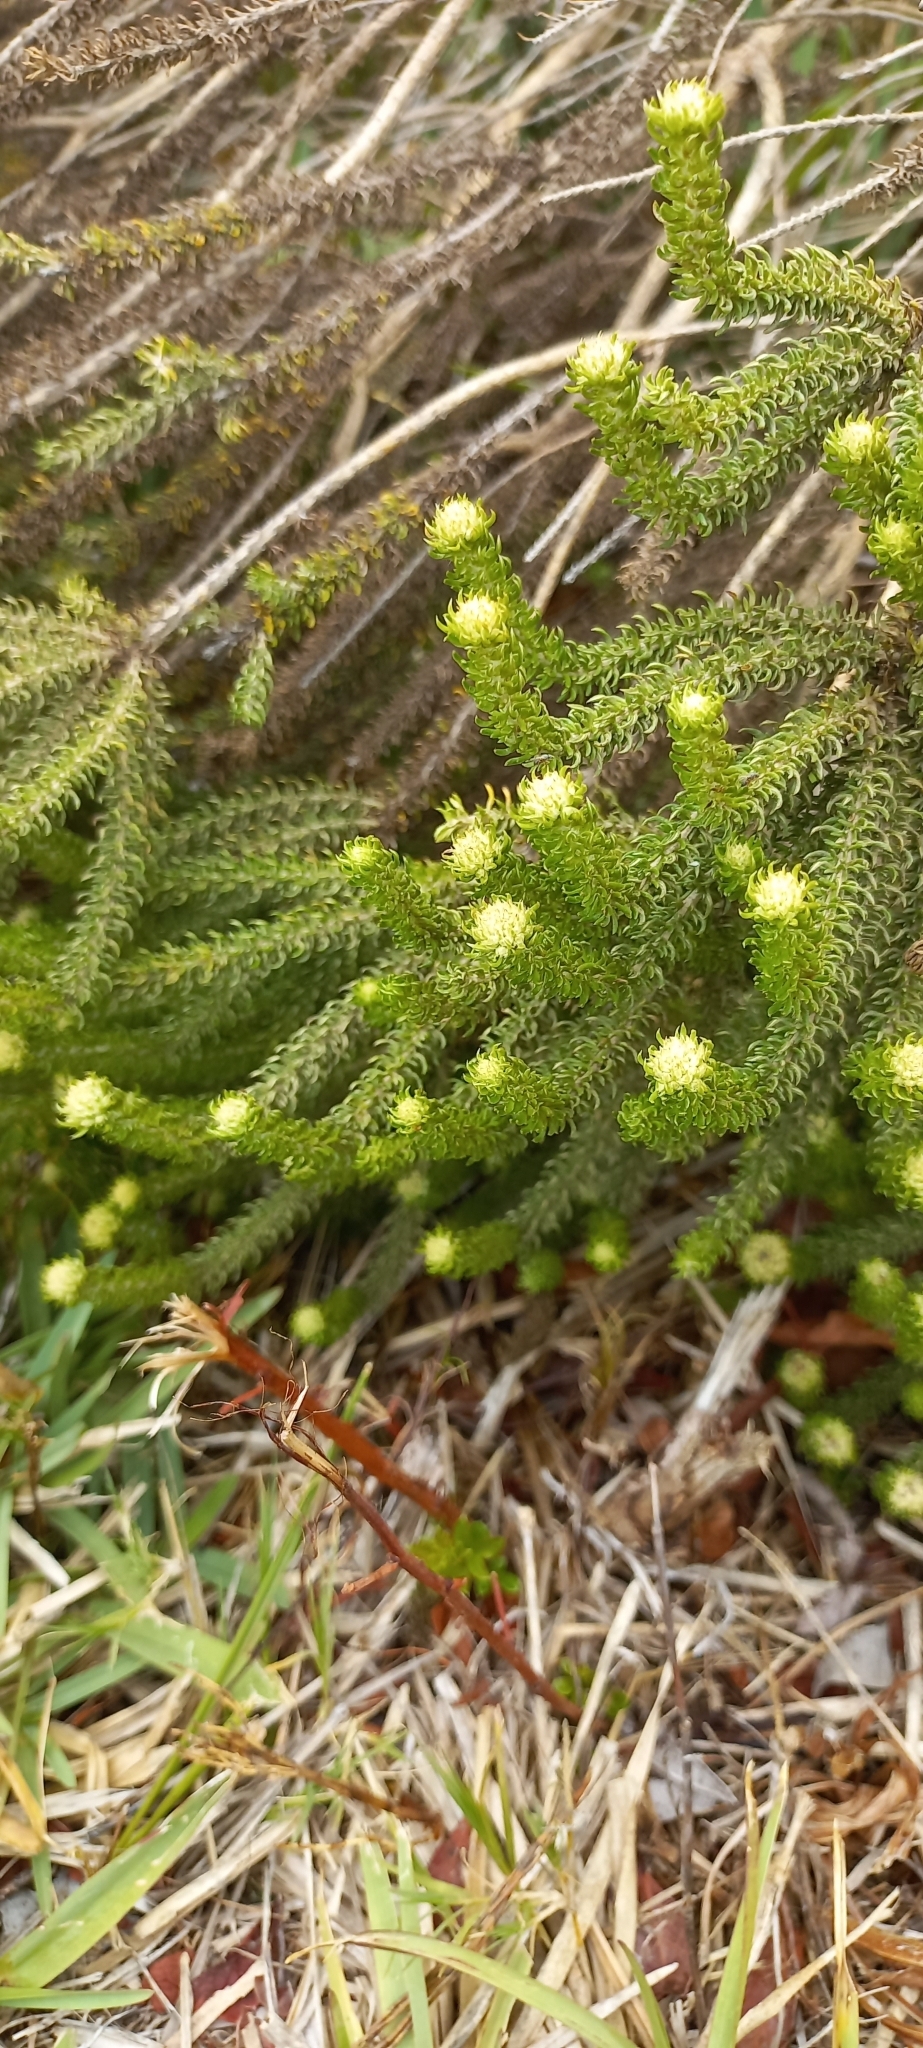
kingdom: Plantae
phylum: Tracheophyta
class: Magnoliopsida
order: Asterales
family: Asteraceae
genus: Metalasia
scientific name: Metalasia muricata
